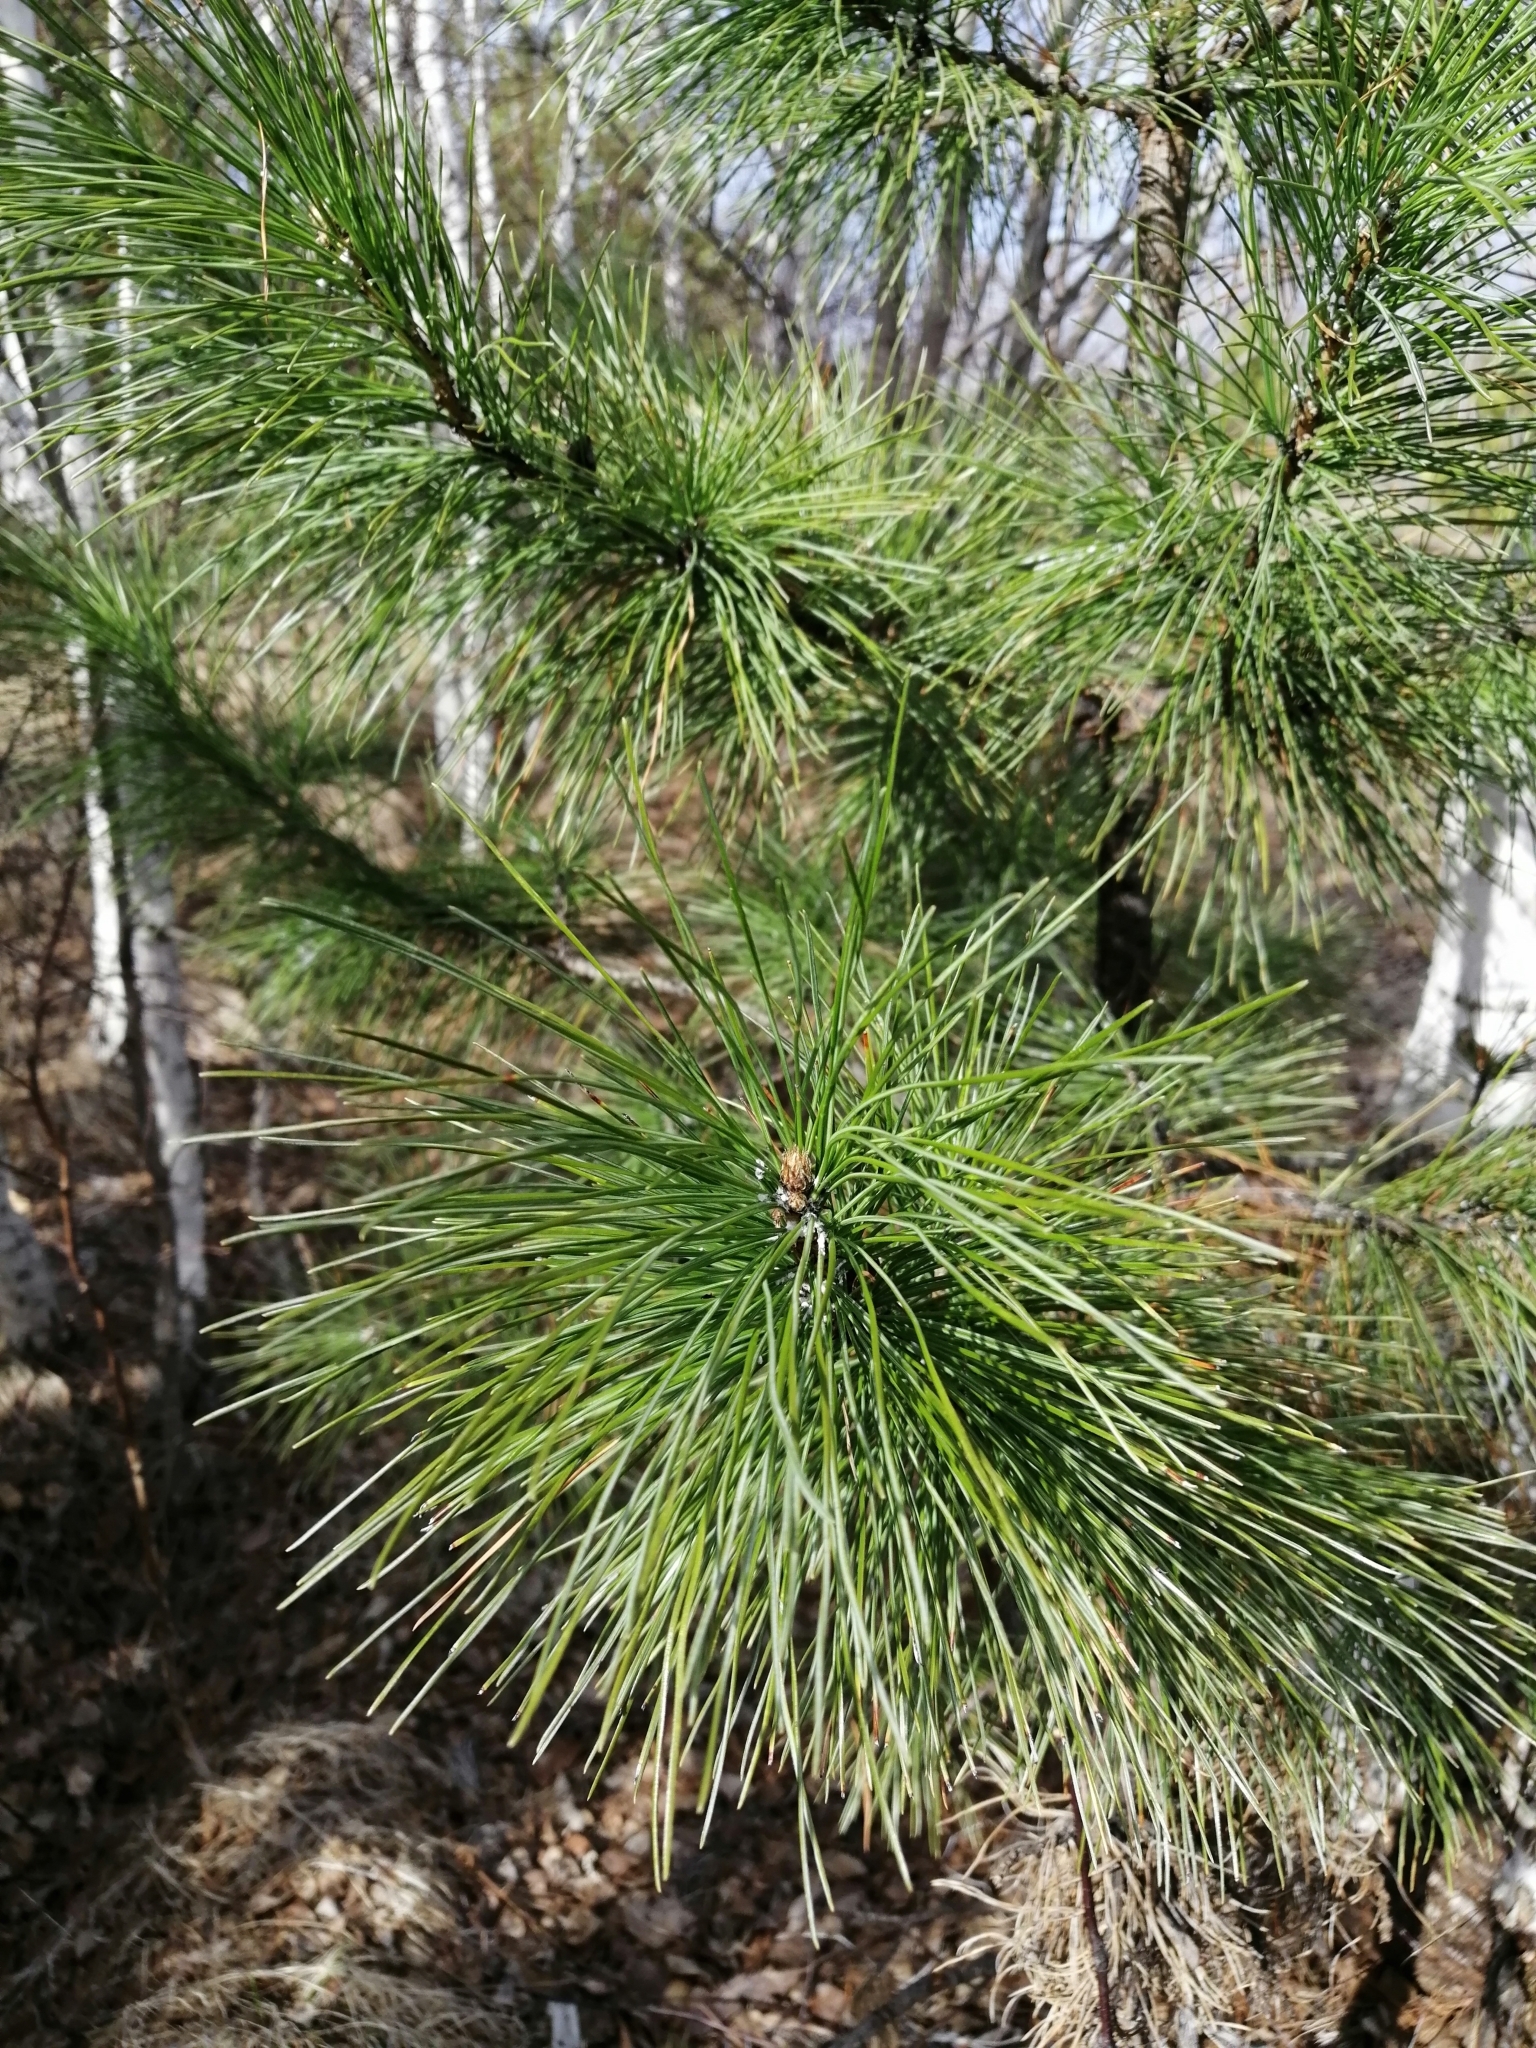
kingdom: Plantae
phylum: Tracheophyta
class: Pinopsida
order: Pinales
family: Pinaceae
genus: Pinus
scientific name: Pinus sibirica
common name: Siberian pine
